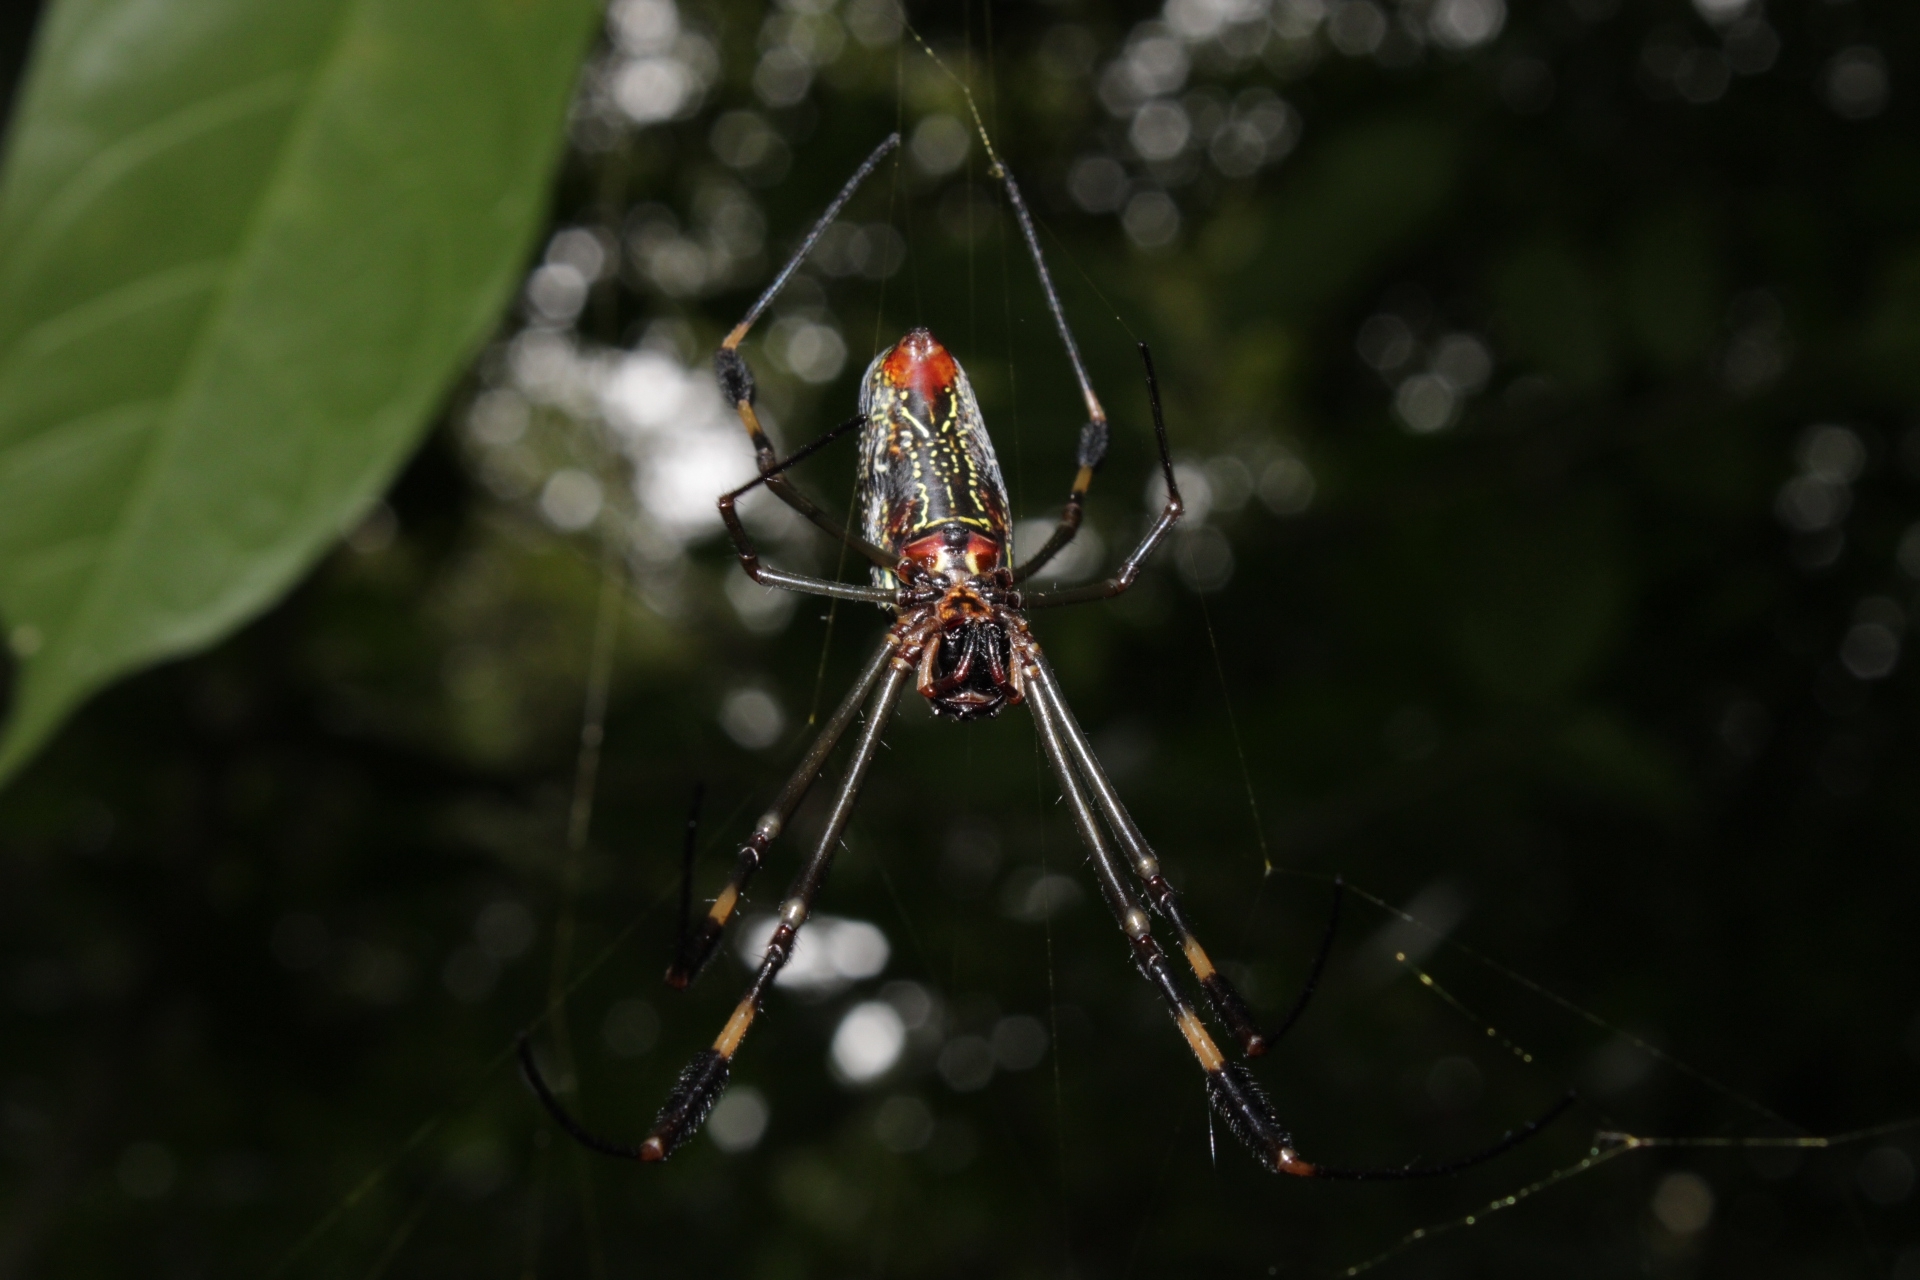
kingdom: Animalia
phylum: Arthropoda
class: Arachnida
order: Araneae
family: Araneidae
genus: Trichonephila
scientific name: Trichonephila clavipes
